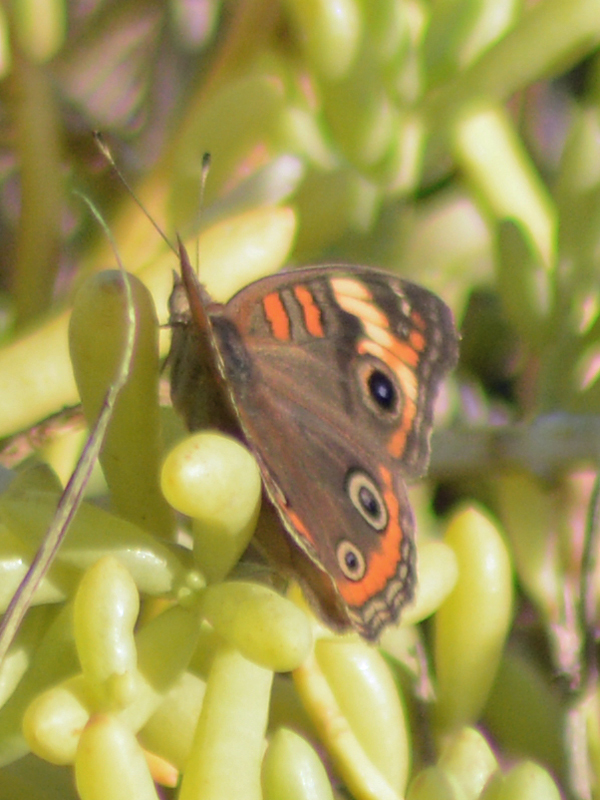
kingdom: Animalia
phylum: Arthropoda
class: Insecta
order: Lepidoptera
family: Nymphalidae
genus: Junonia
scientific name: Junonia pacoma
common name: Pacific mangrove buckeye
